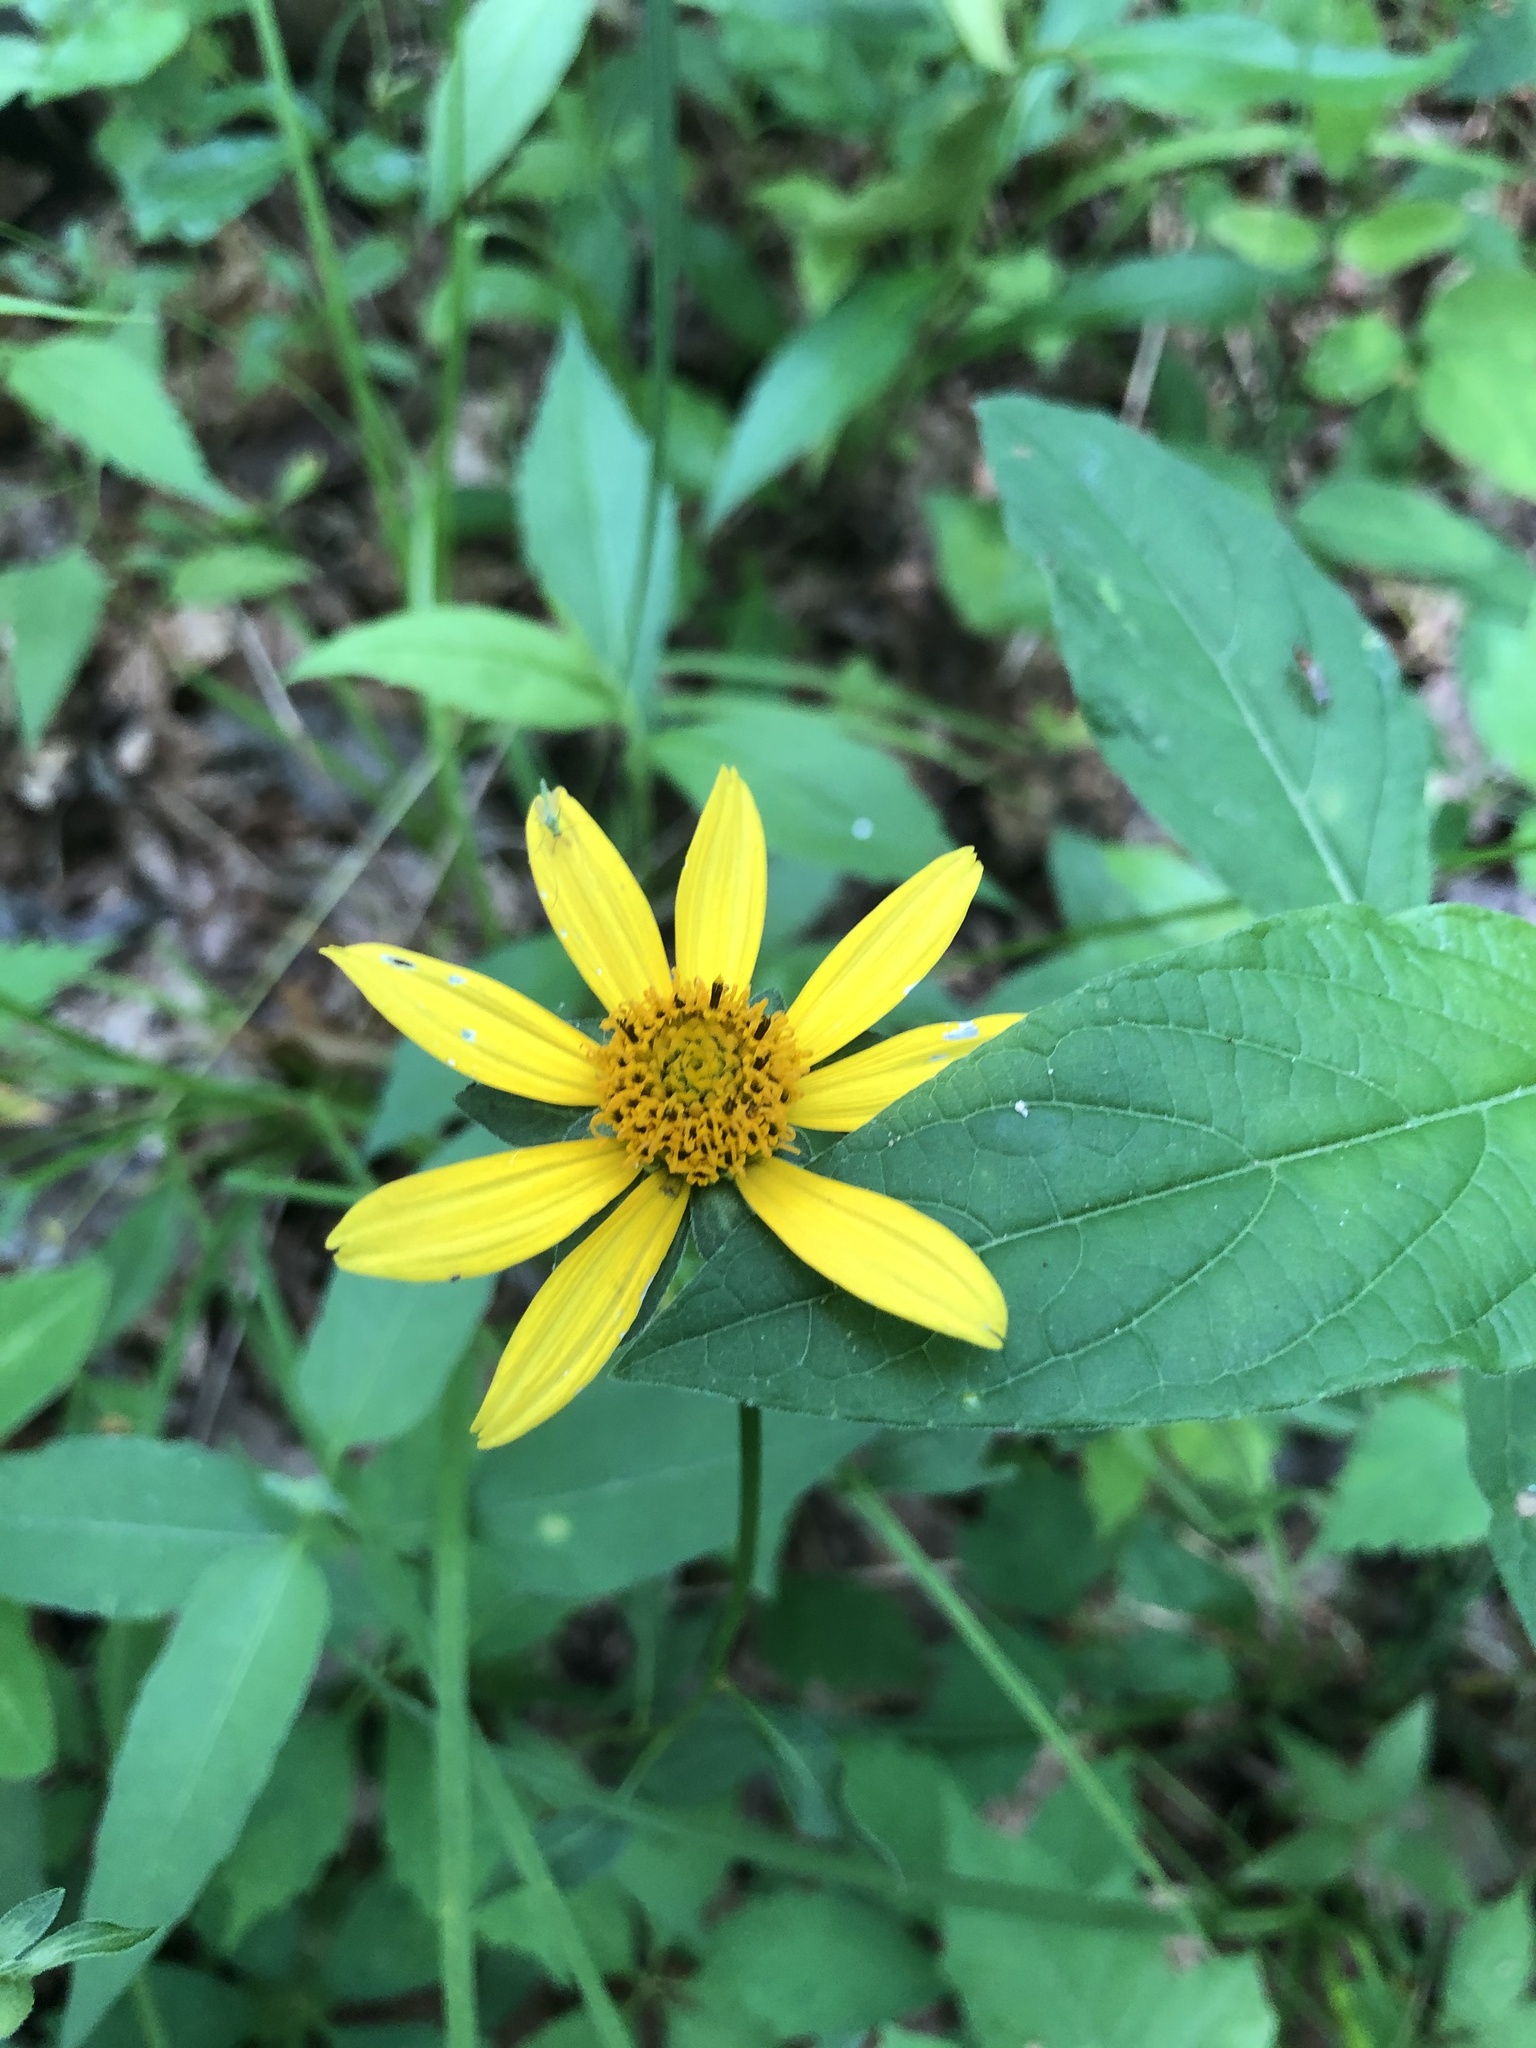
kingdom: Plantae
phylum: Tracheophyta
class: Magnoliopsida
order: Asterales
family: Asteraceae
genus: Heliopsis
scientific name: Heliopsis gracilis
